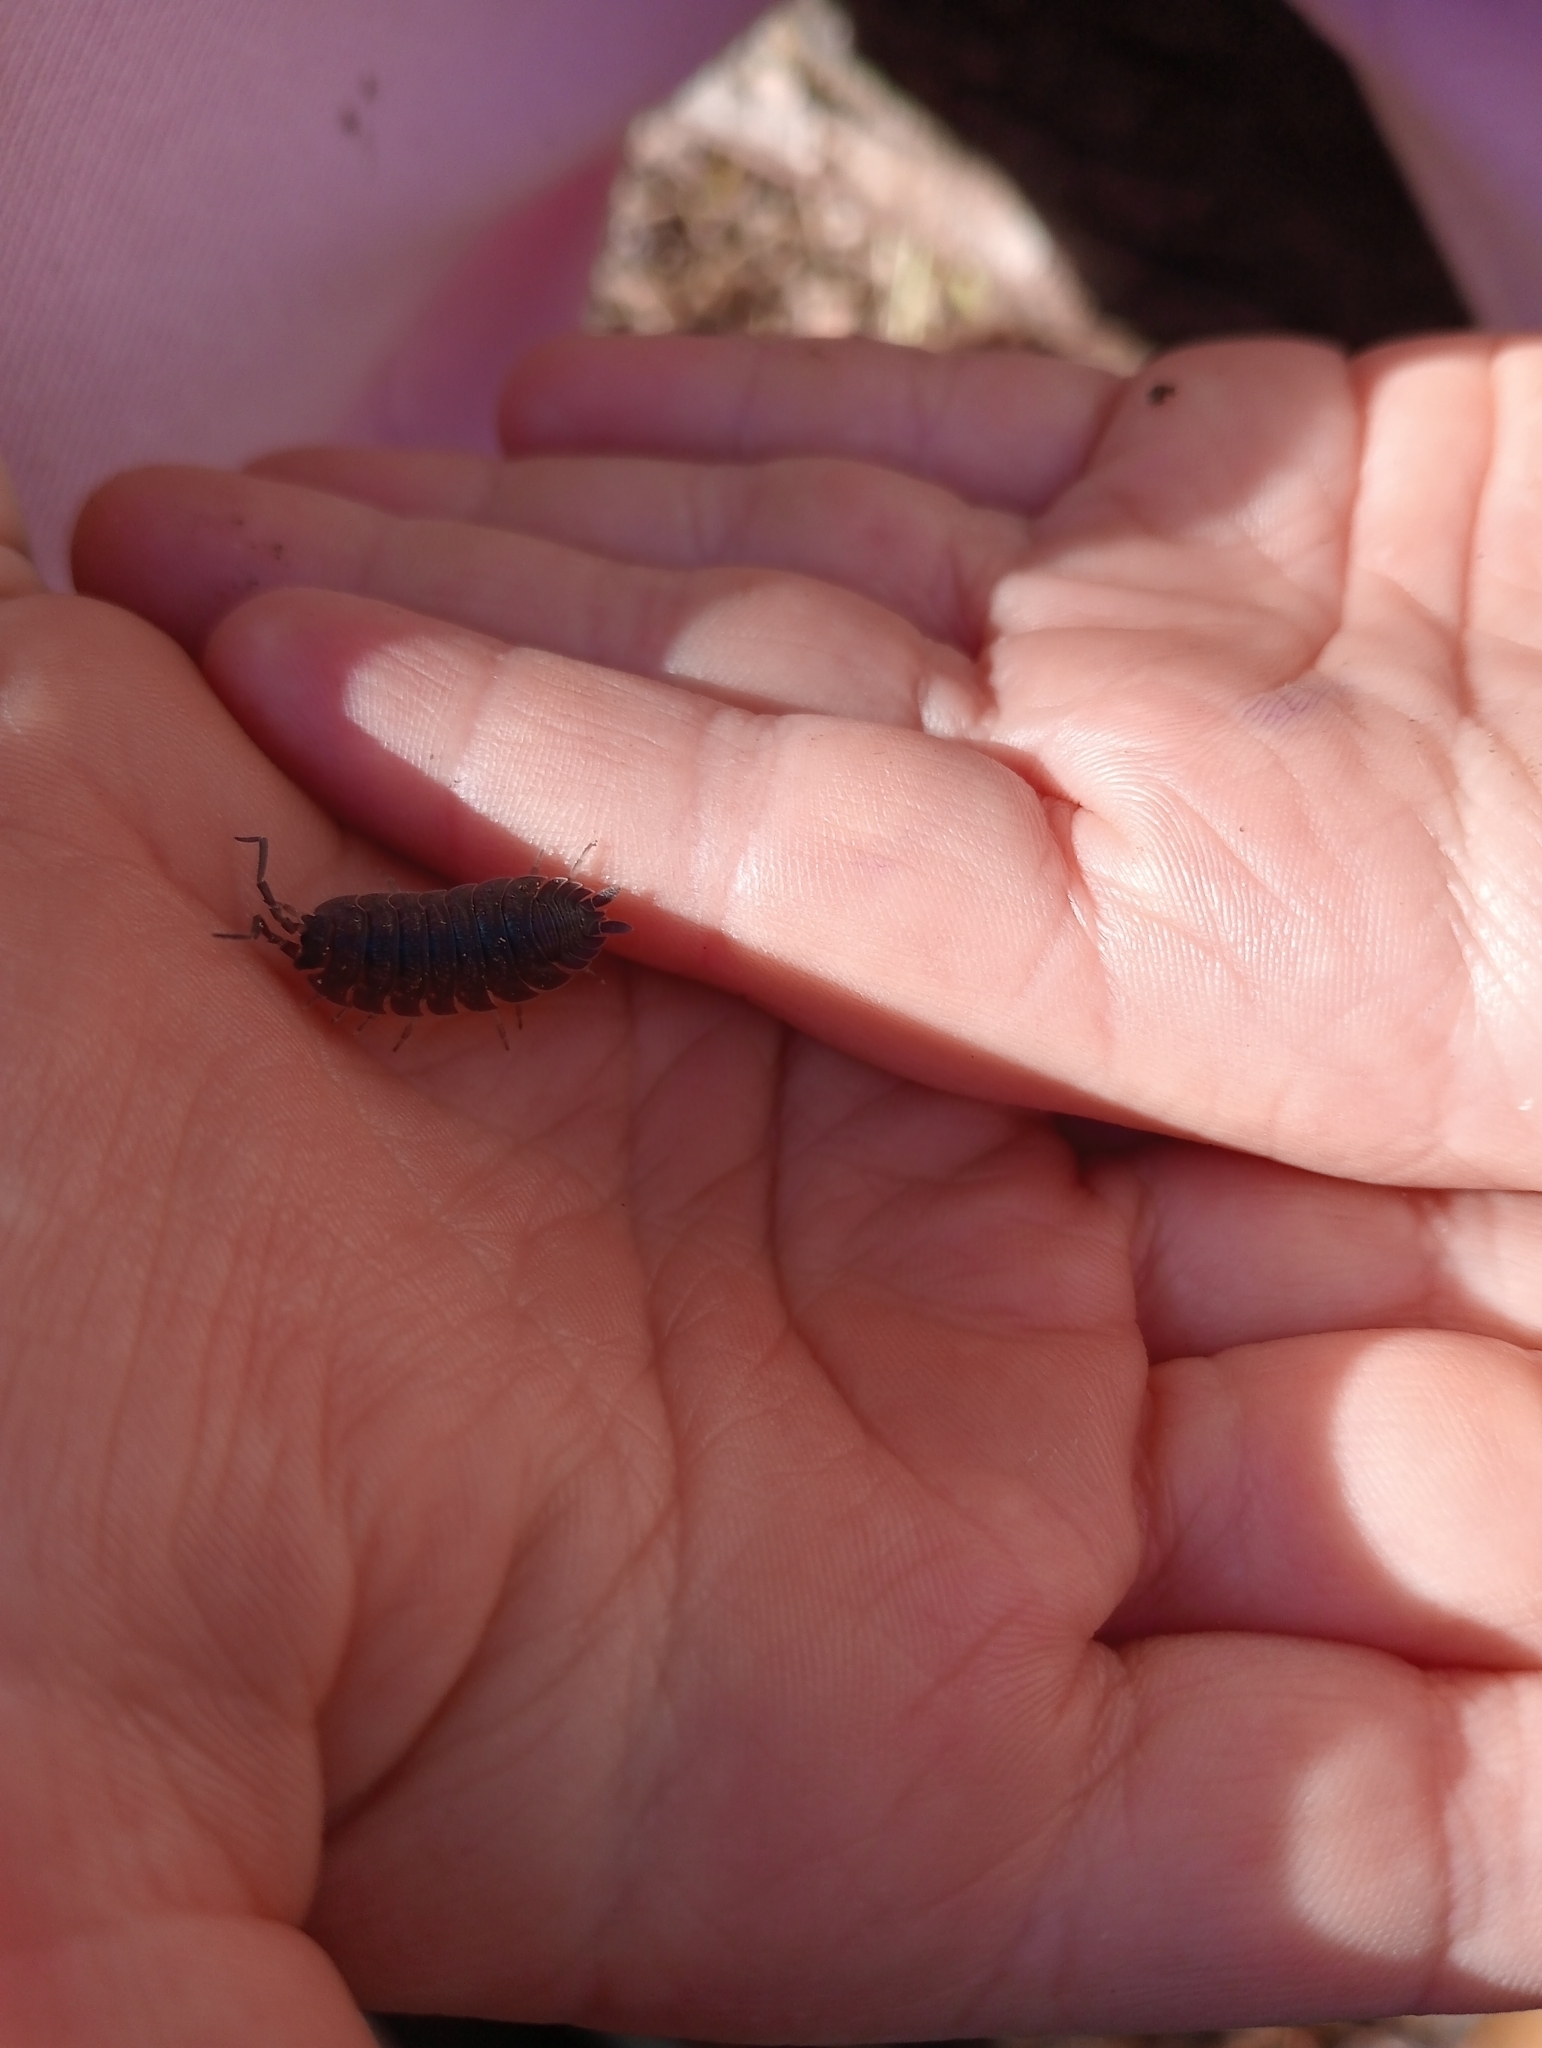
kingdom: Animalia
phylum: Arthropoda
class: Malacostraca
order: Isopoda
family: Porcellionidae
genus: Porcellio
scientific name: Porcellio scaber
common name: Common rough woodlouse
